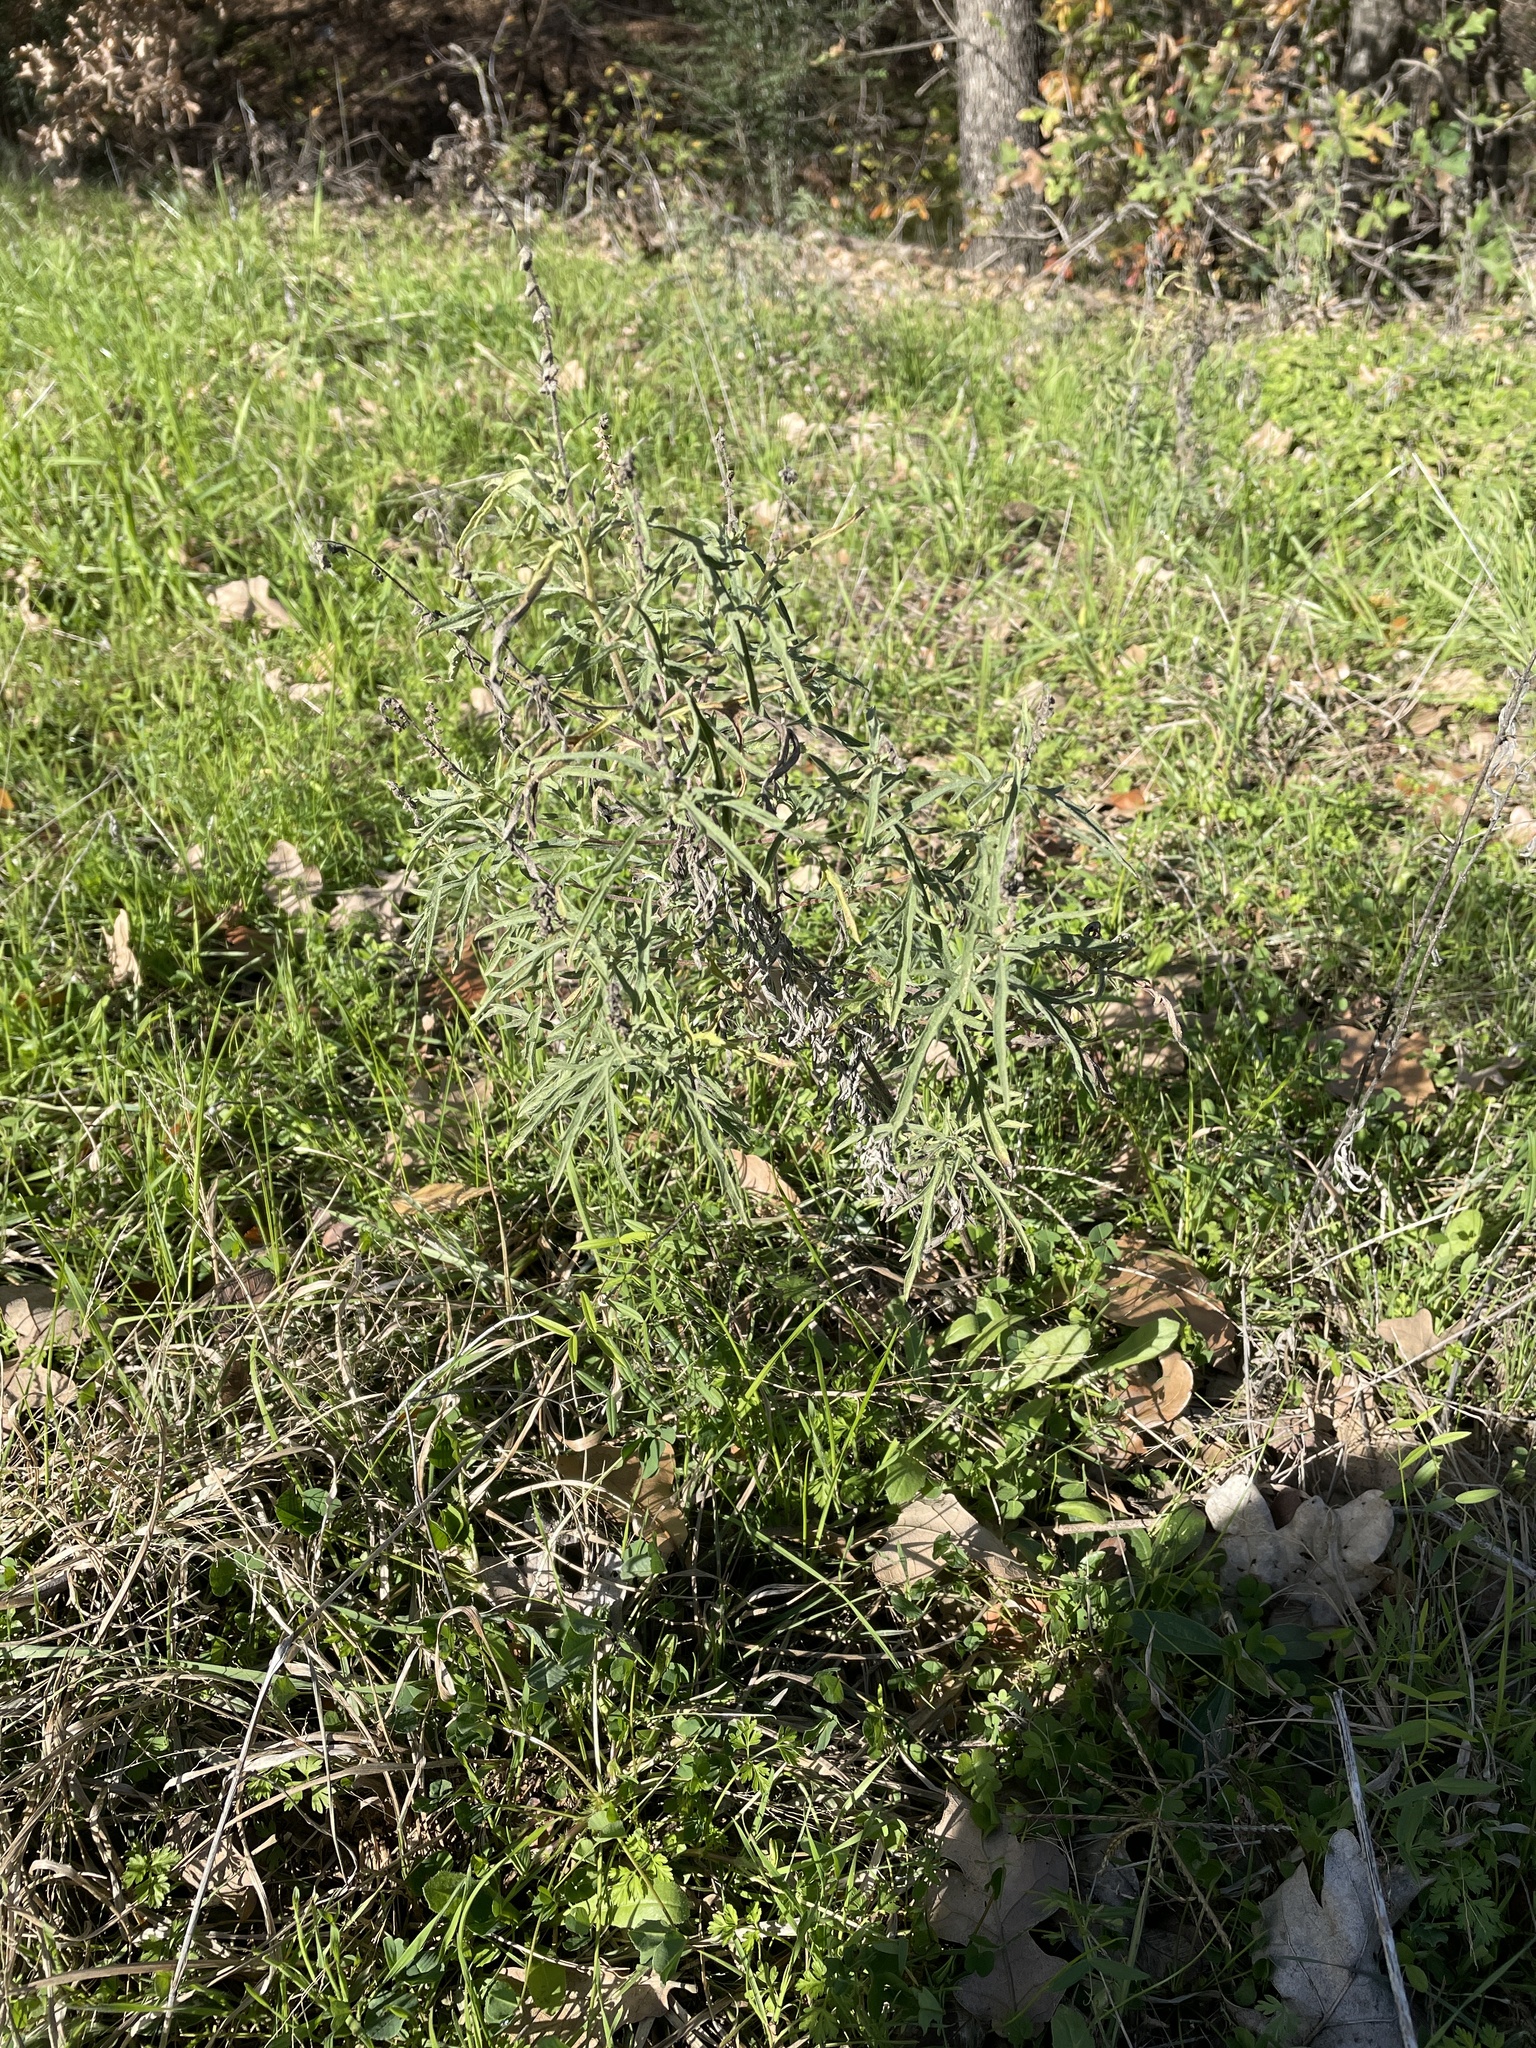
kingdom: Plantae
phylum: Tracheophyta
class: Magnoliopsida
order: Asterales
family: Asteraceae
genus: Ambrosia
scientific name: Ambrosia psilostachya
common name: Perennial ragweed
